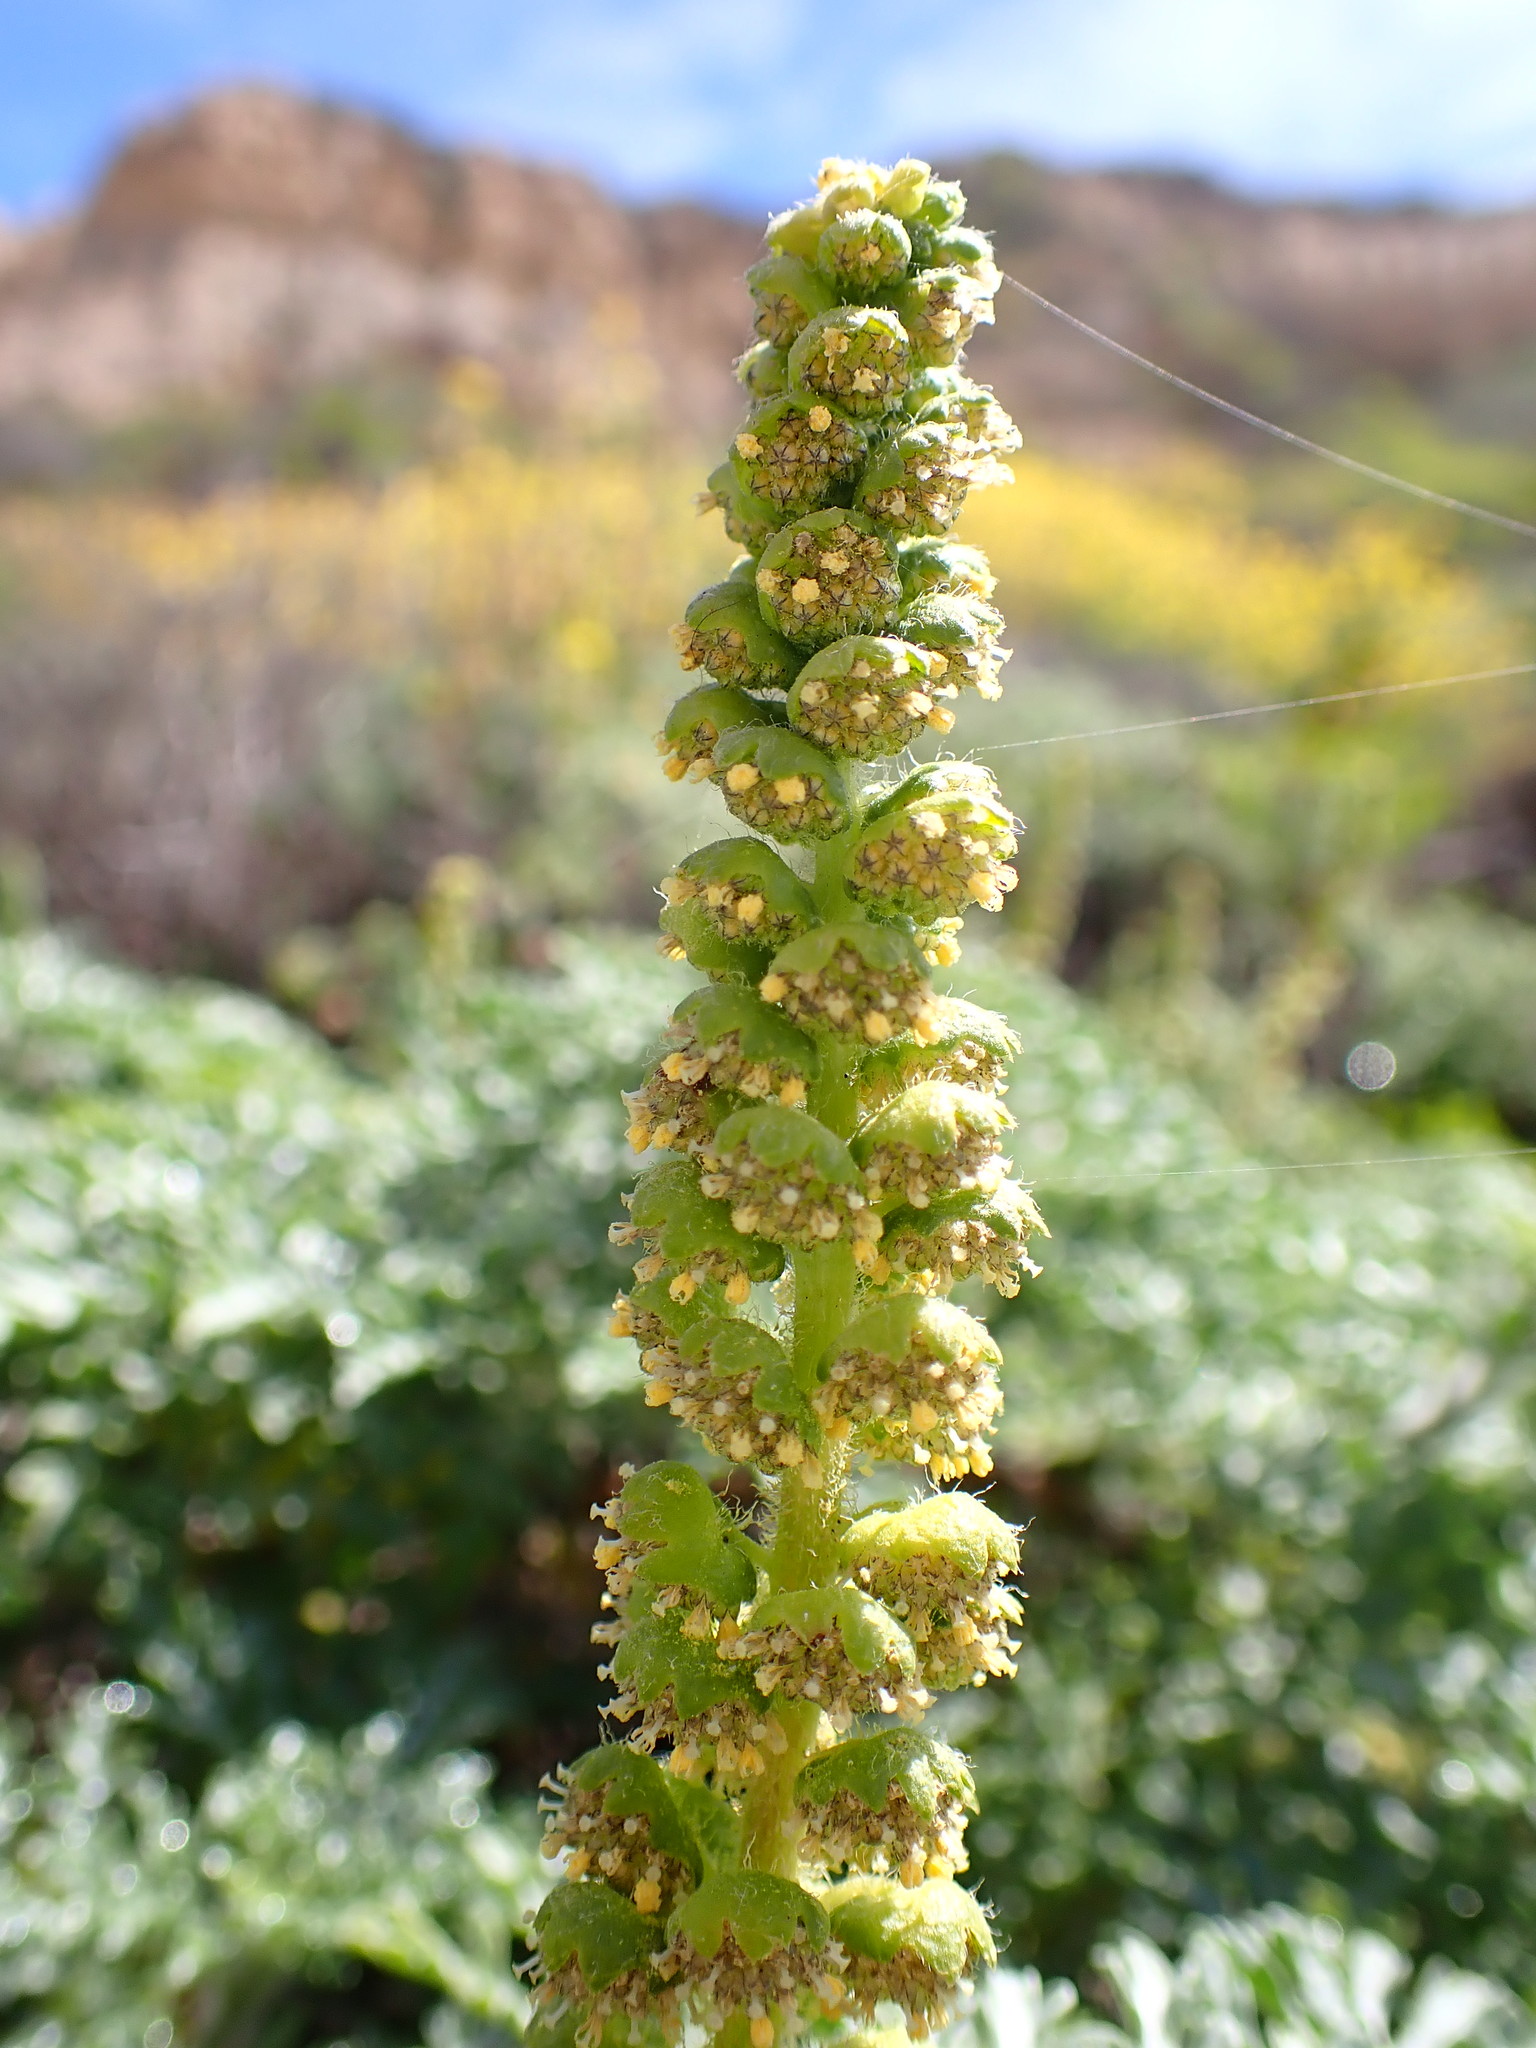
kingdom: Plantae
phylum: Tracheophyta
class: Magnoliopsida
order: Asterales
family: Asteraceae
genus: Ambrosia
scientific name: Ambrosia chamissonis
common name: Beachbur
